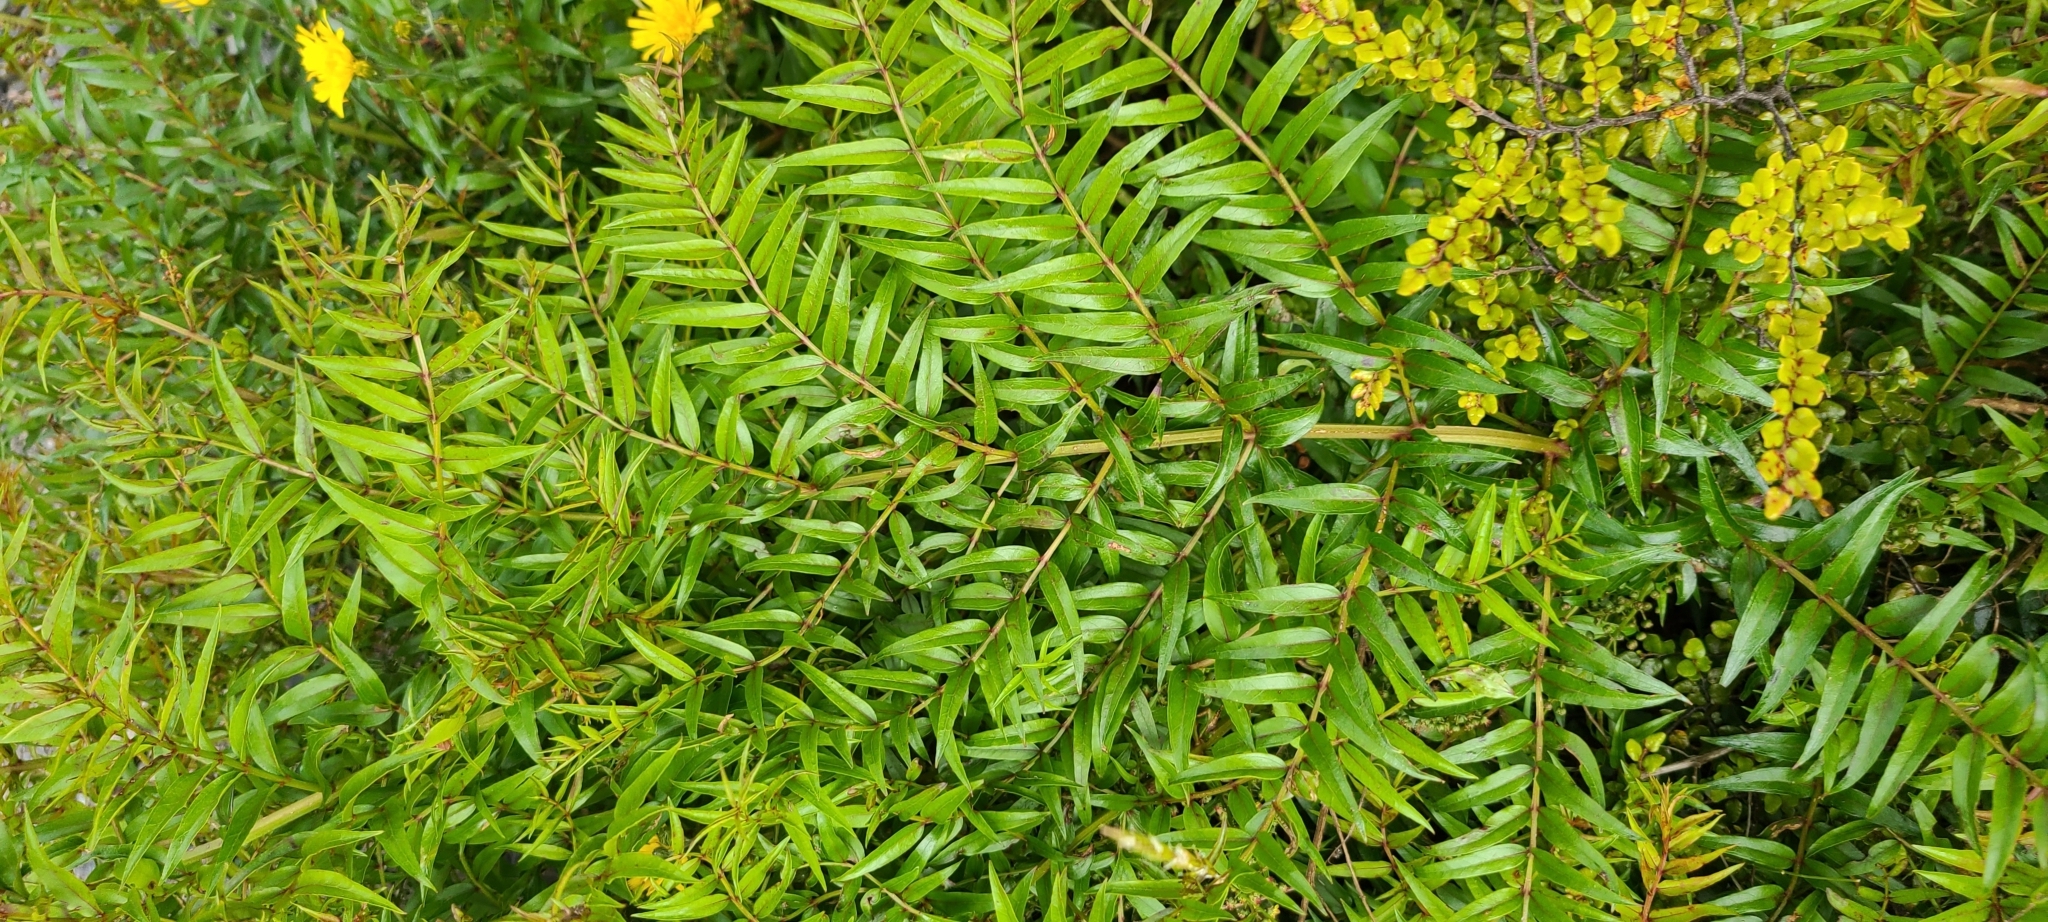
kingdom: Plantae
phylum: Tracheophyta
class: Magnoliopsida
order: Cucurbitales
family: Coriariaceae
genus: Coriaria
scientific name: Coriaria plumosa
